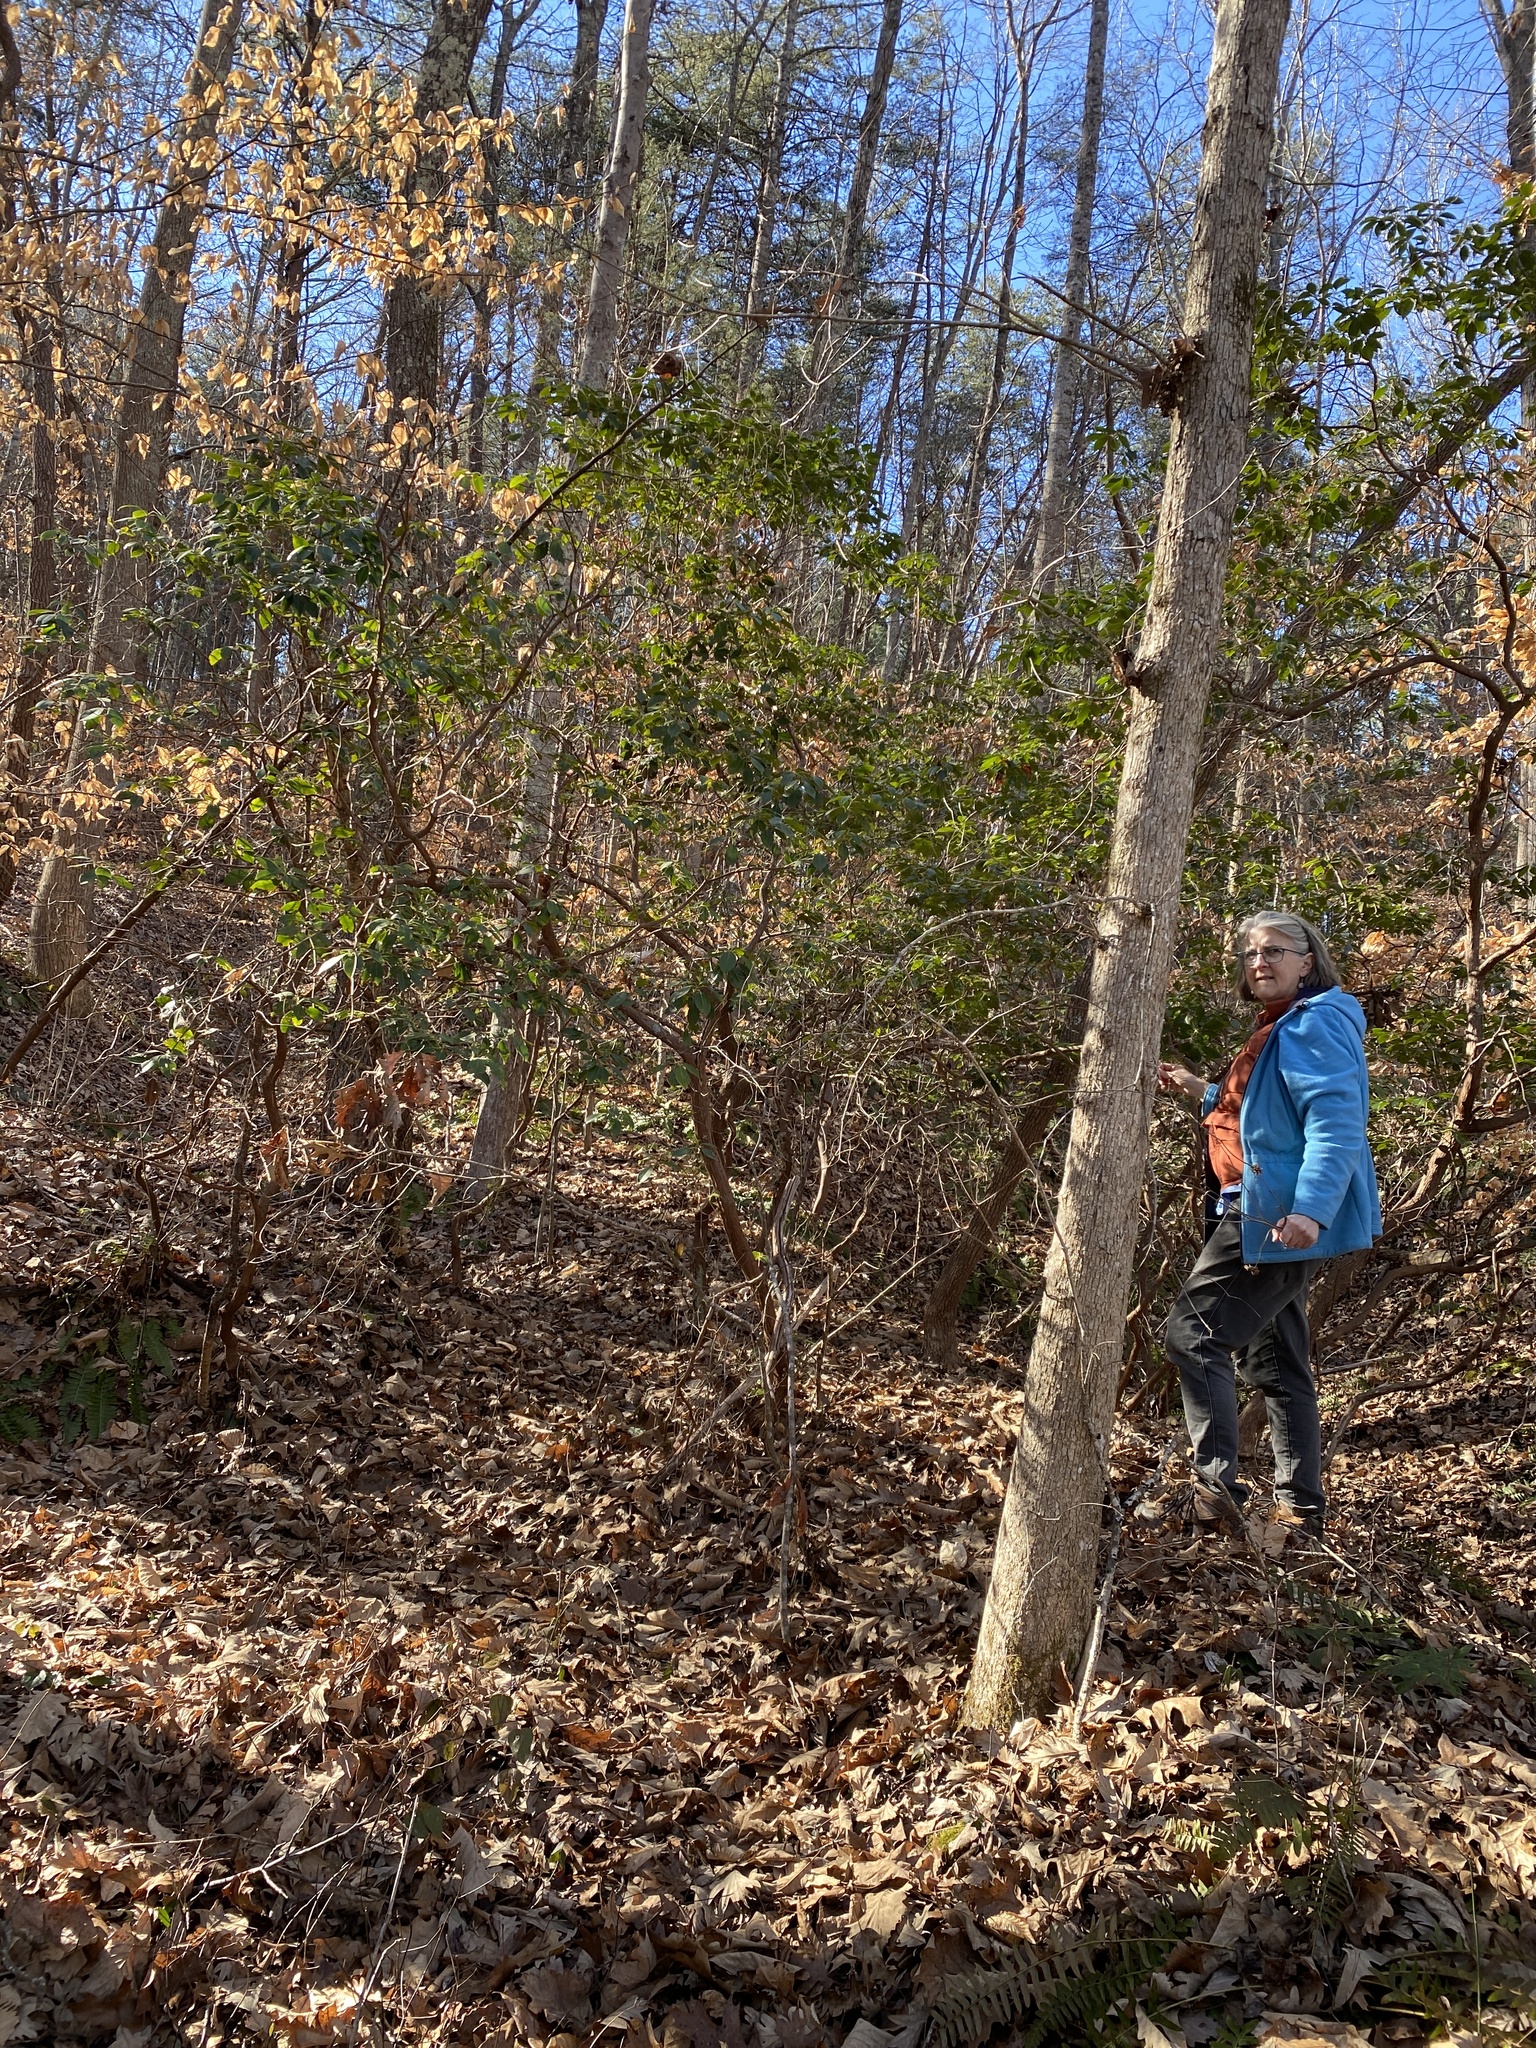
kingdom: Plantae
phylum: Tracheophyta
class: Magnoliopsida
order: Ericales
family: Ericaceae
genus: Kalmia
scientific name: Kalmia latifolia
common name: Mountain-laurel
